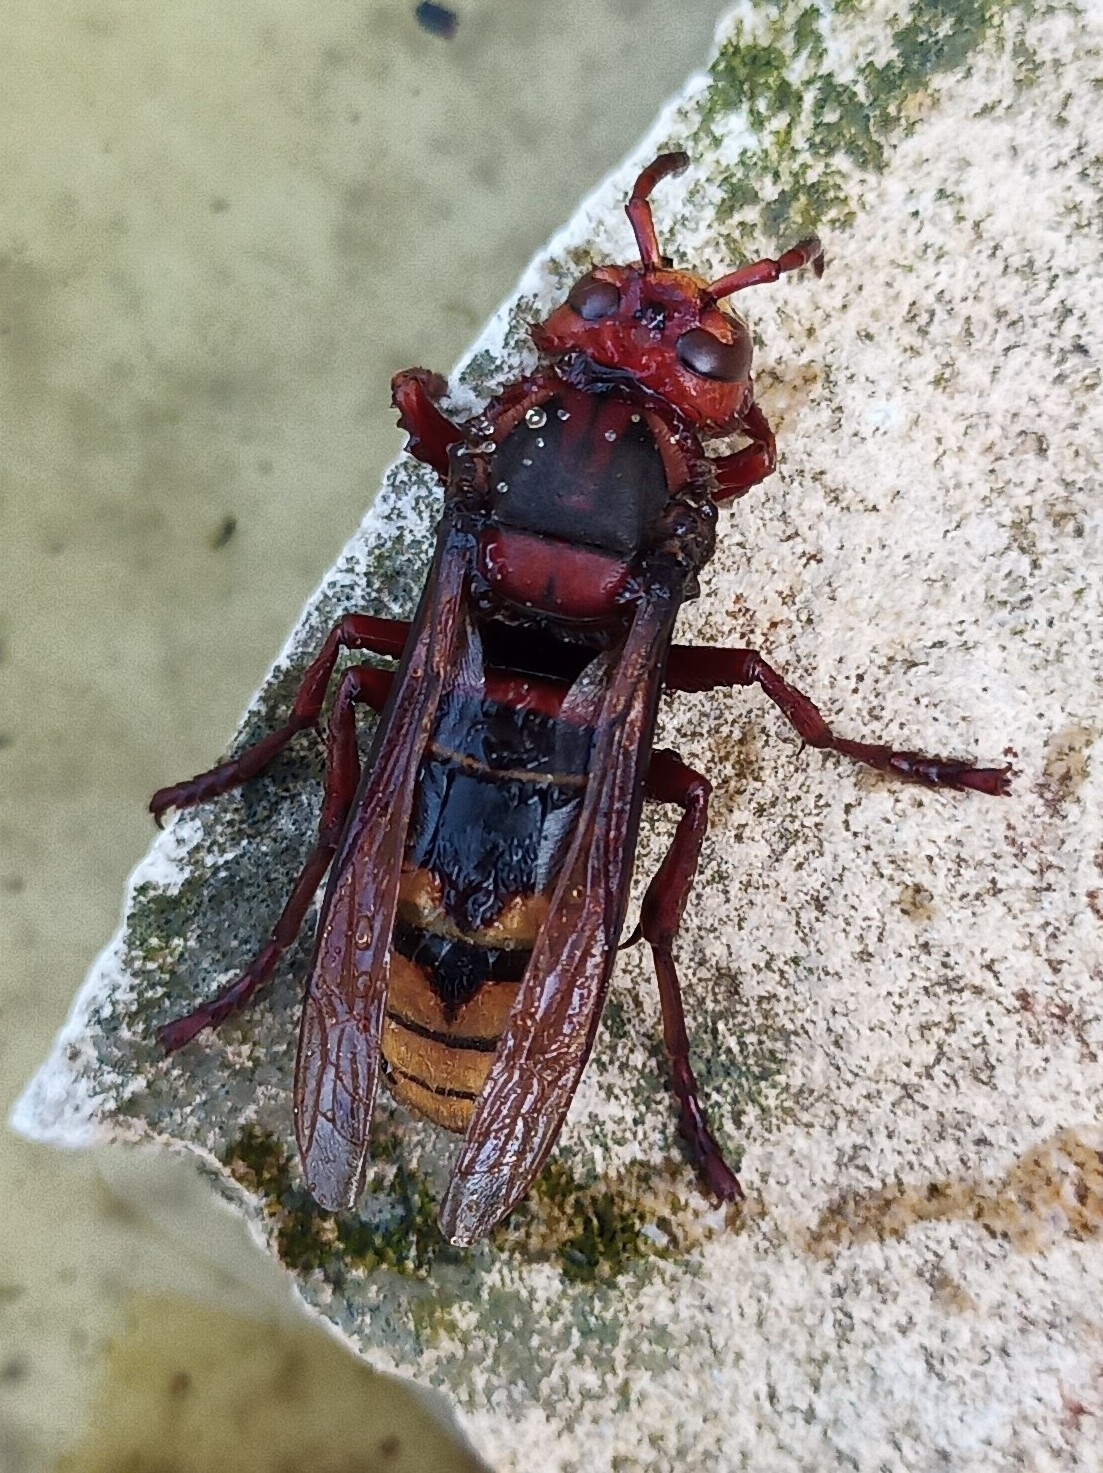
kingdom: Animalia
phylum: Arthropoda
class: Insecta
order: Hymenoptera
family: Vespidae
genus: Vespa
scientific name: Vespa crabro
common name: Hornet
